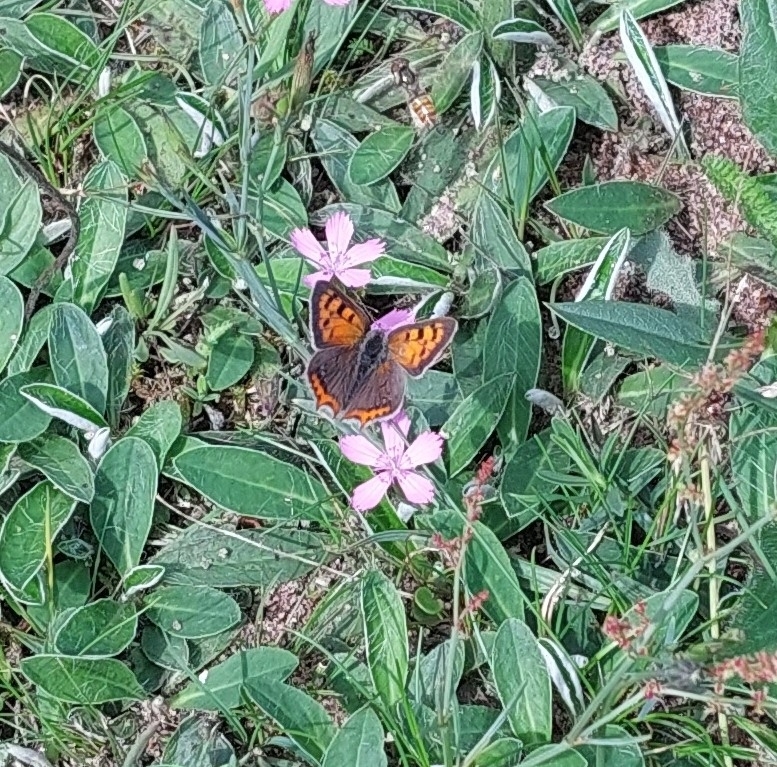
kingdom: Animalia
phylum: Arthropoda
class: Insecta
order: Lepidoptera
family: Lycaenidae
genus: Lycaena
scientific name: Lycaena phlaeas
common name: Small copper
